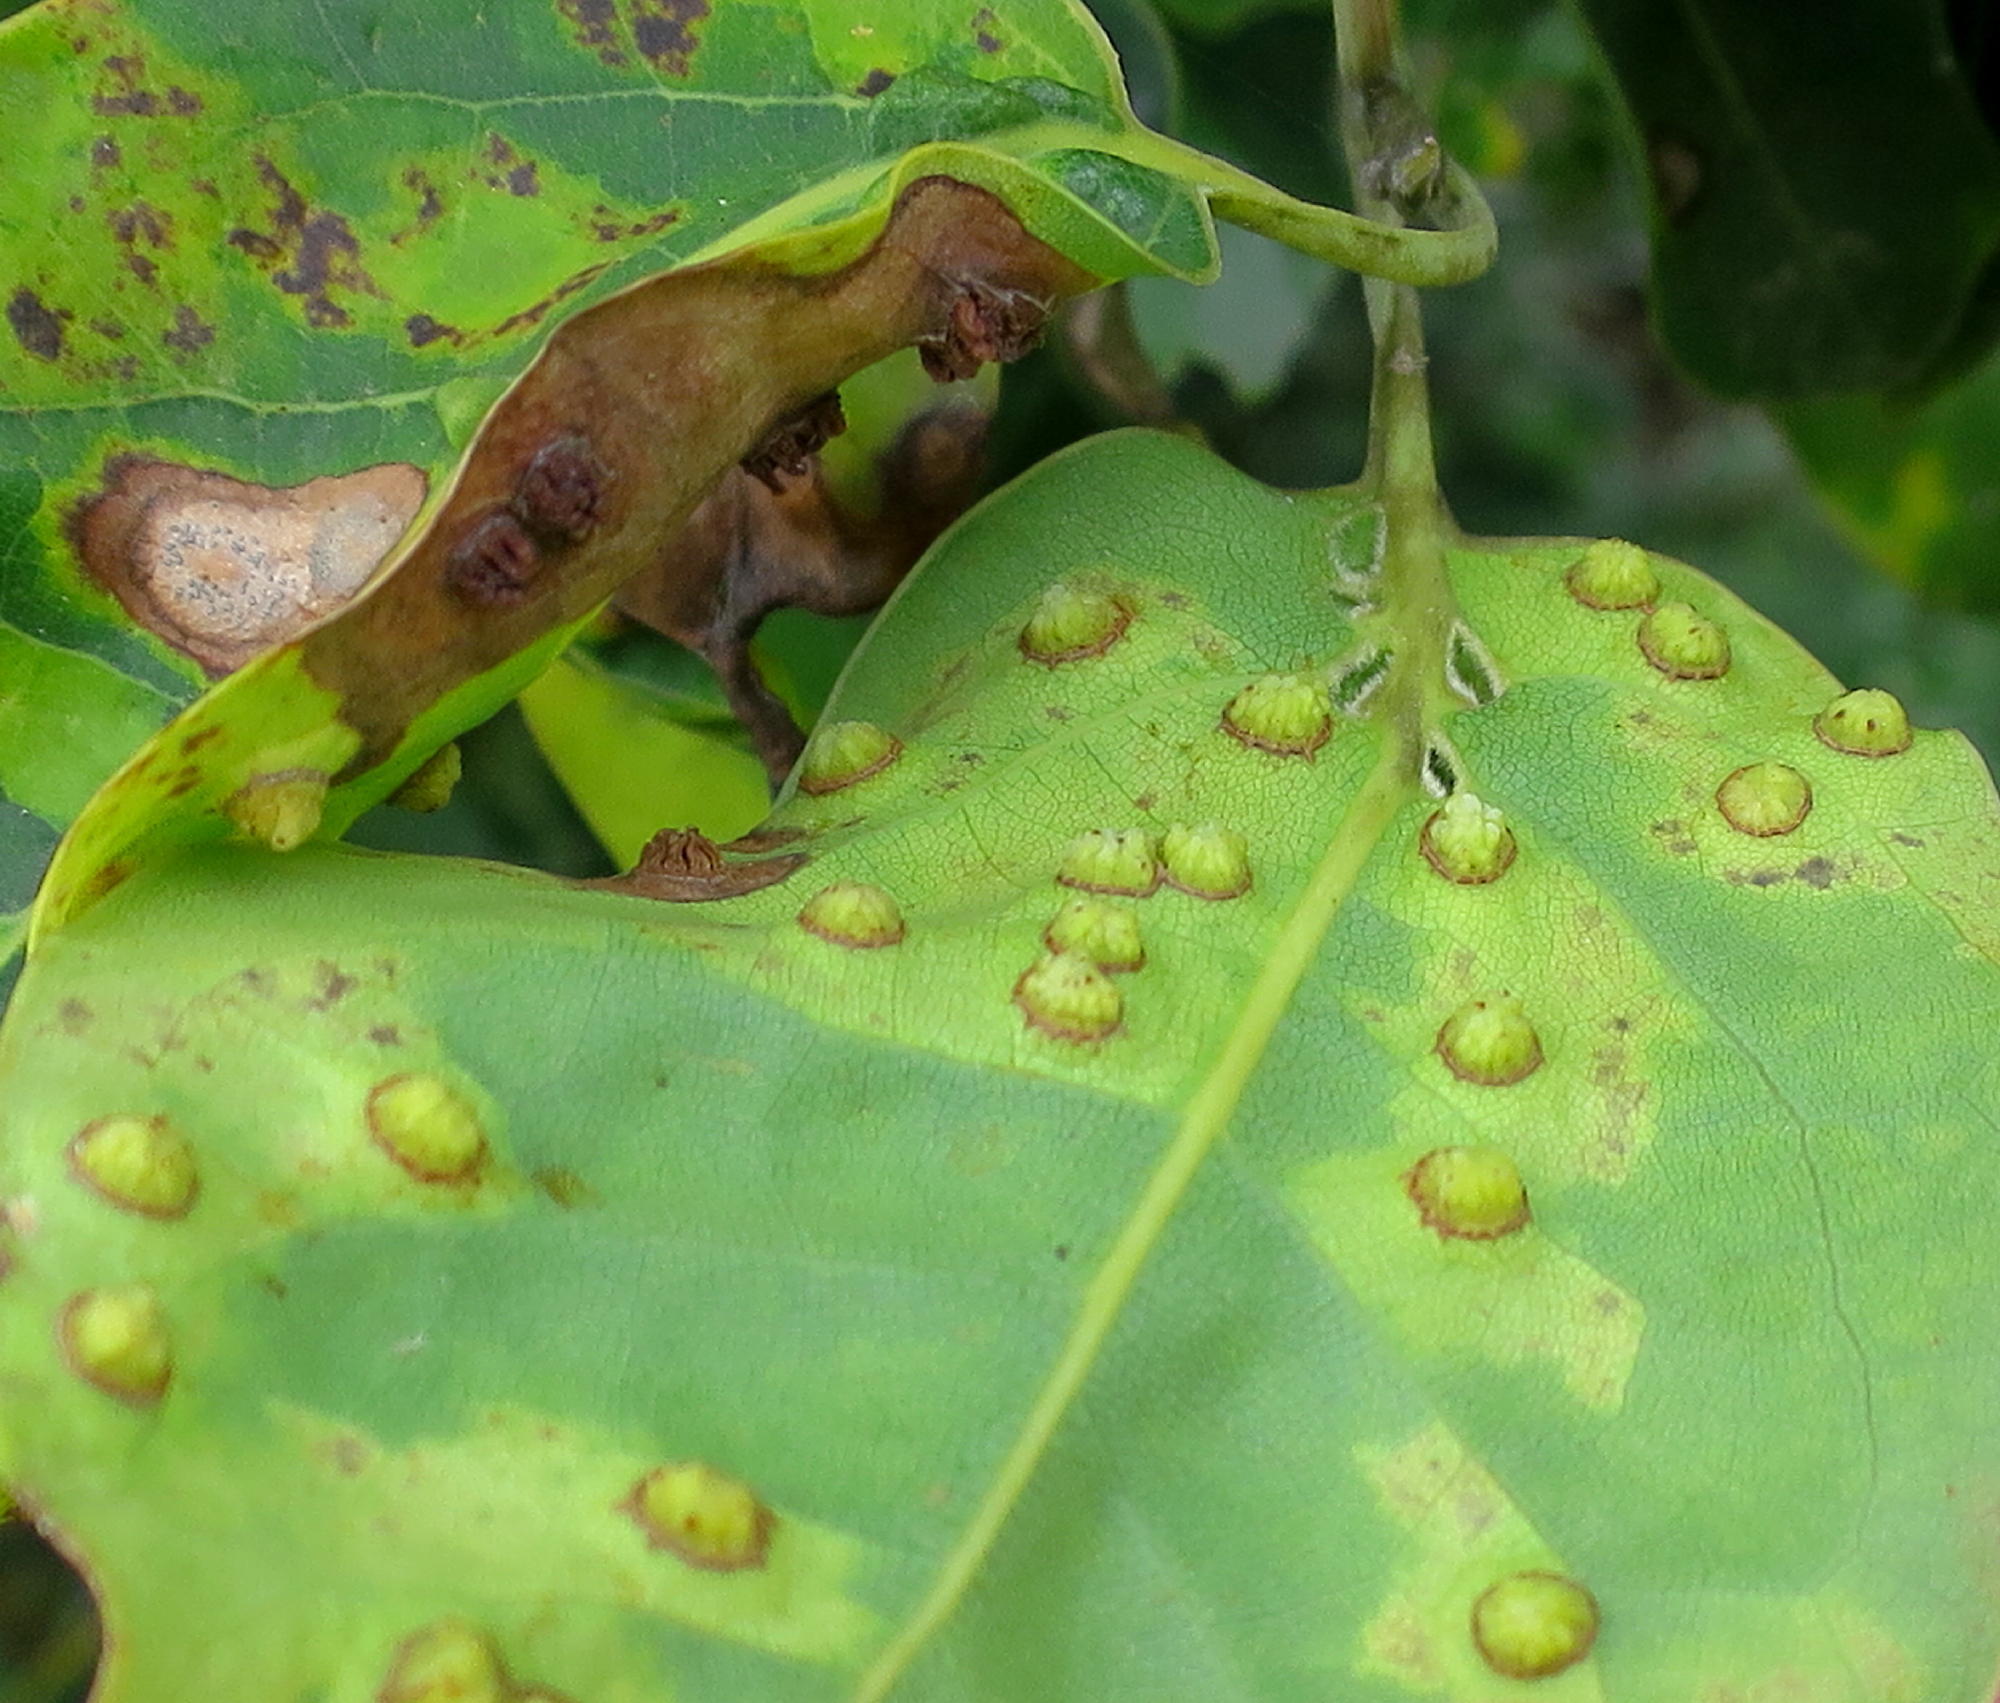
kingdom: Plantae
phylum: Tracheophyta
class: Magnoliopsida
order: Laurales
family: Lauraceae
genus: Ocotea
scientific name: Ocotea bullata
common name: Black stinkwood
